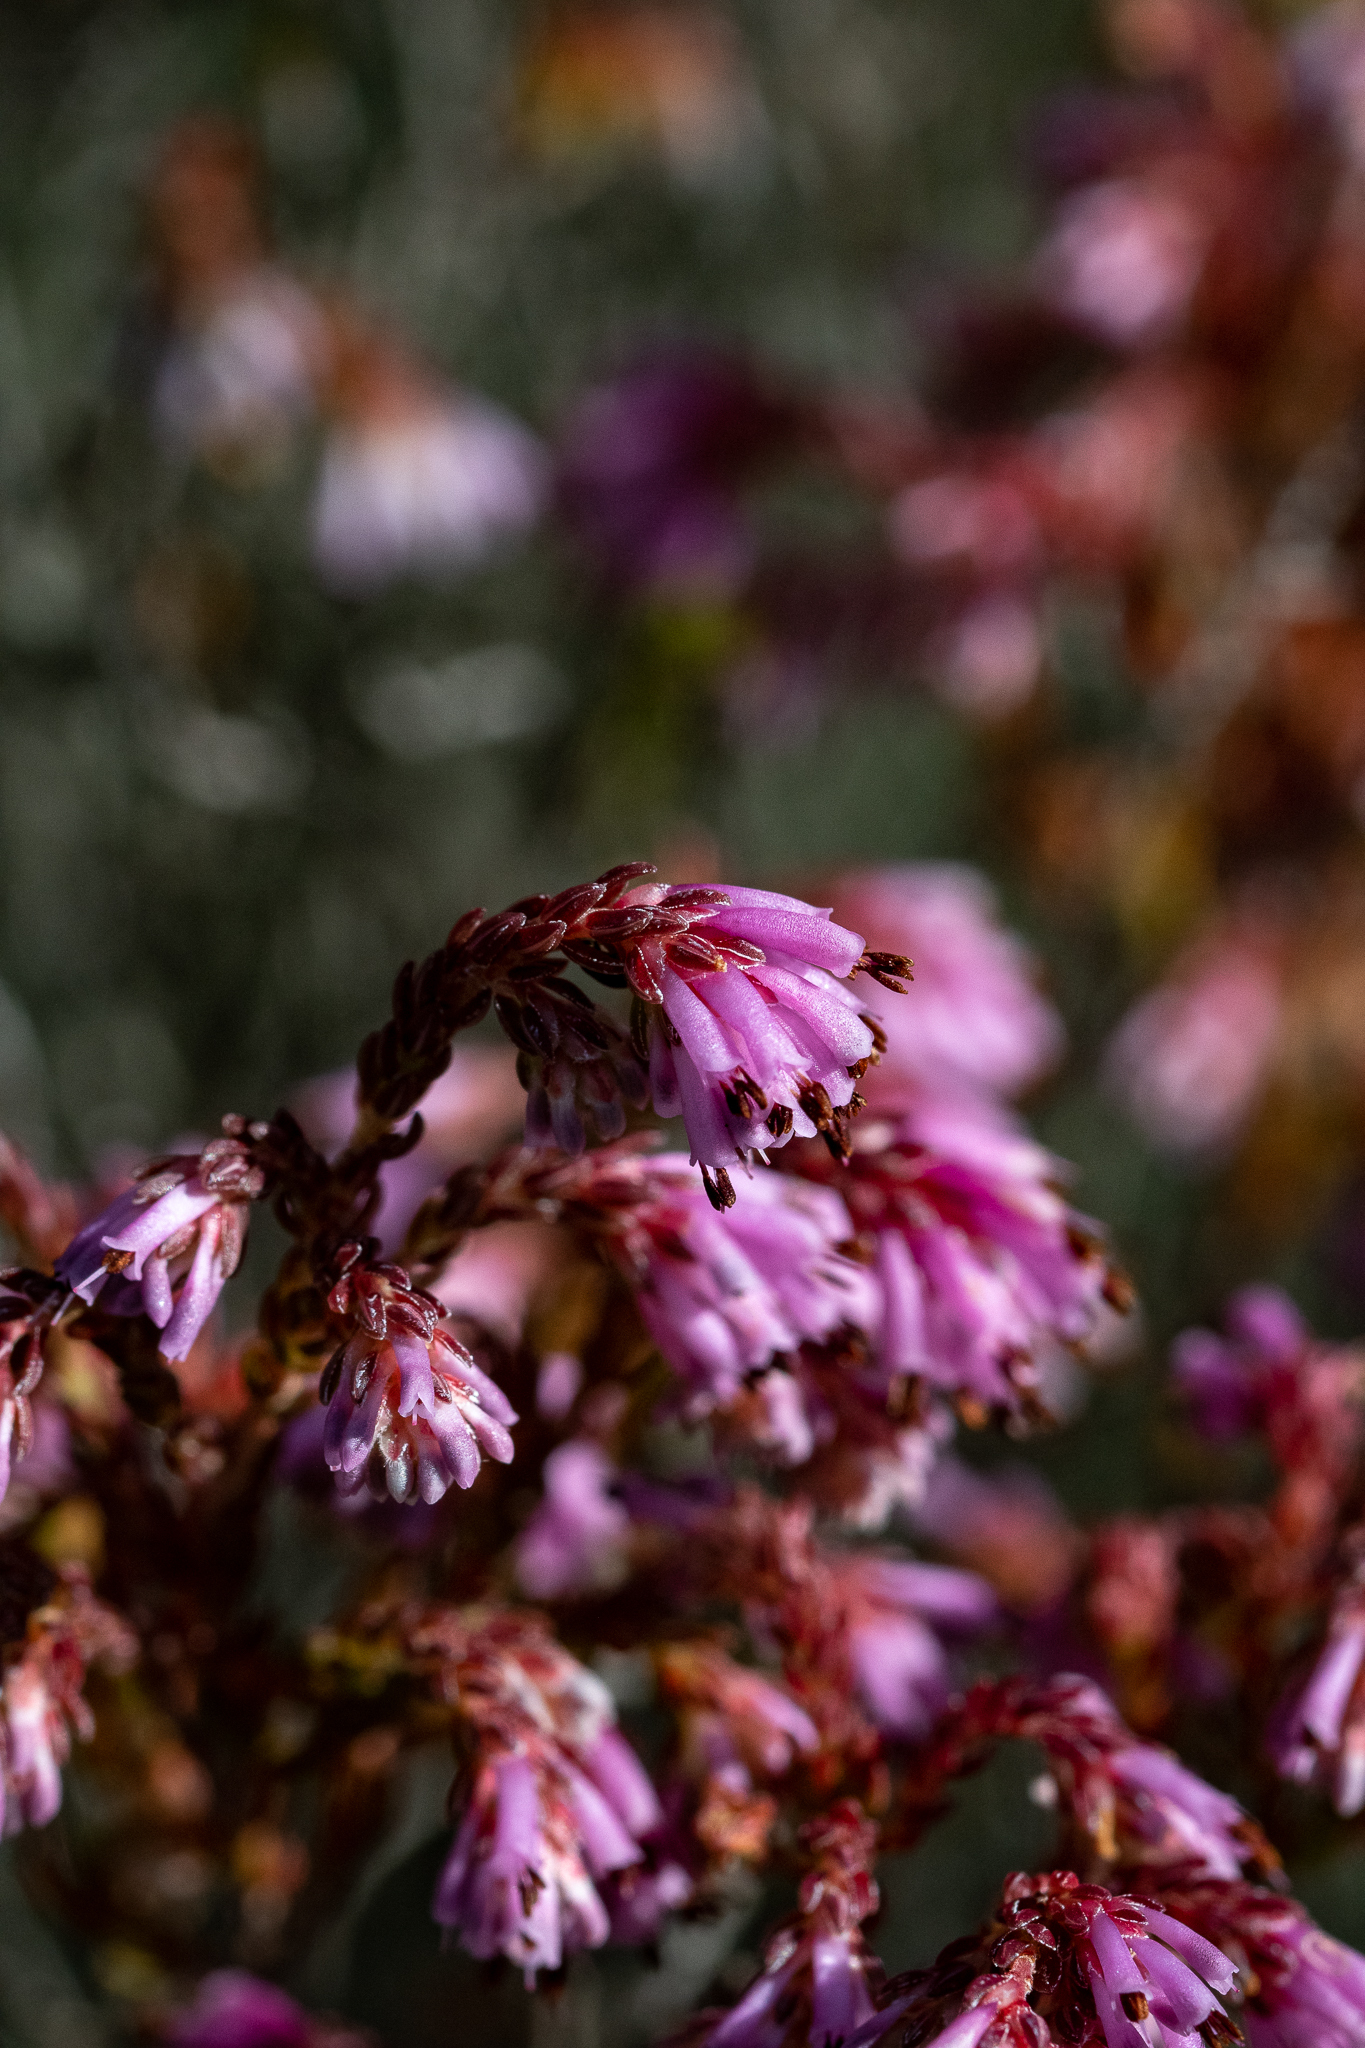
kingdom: Plantae
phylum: Tracheophyta
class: Magnoliopsida
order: Ericales
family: Ericaceae
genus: Erica
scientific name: Erica labialis
